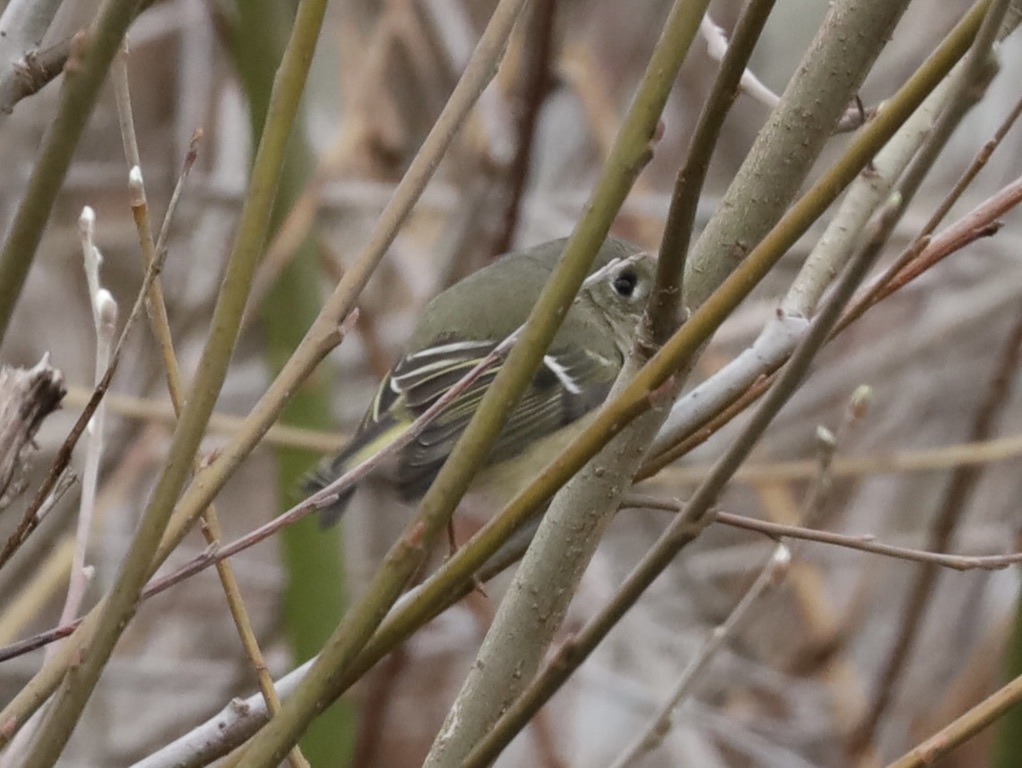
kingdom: Animalia
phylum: Chordata
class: Aves
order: Passeriformes
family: Regulidae
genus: Regulus
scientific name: Regulus calendula
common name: Ruby-crowned kinglet
